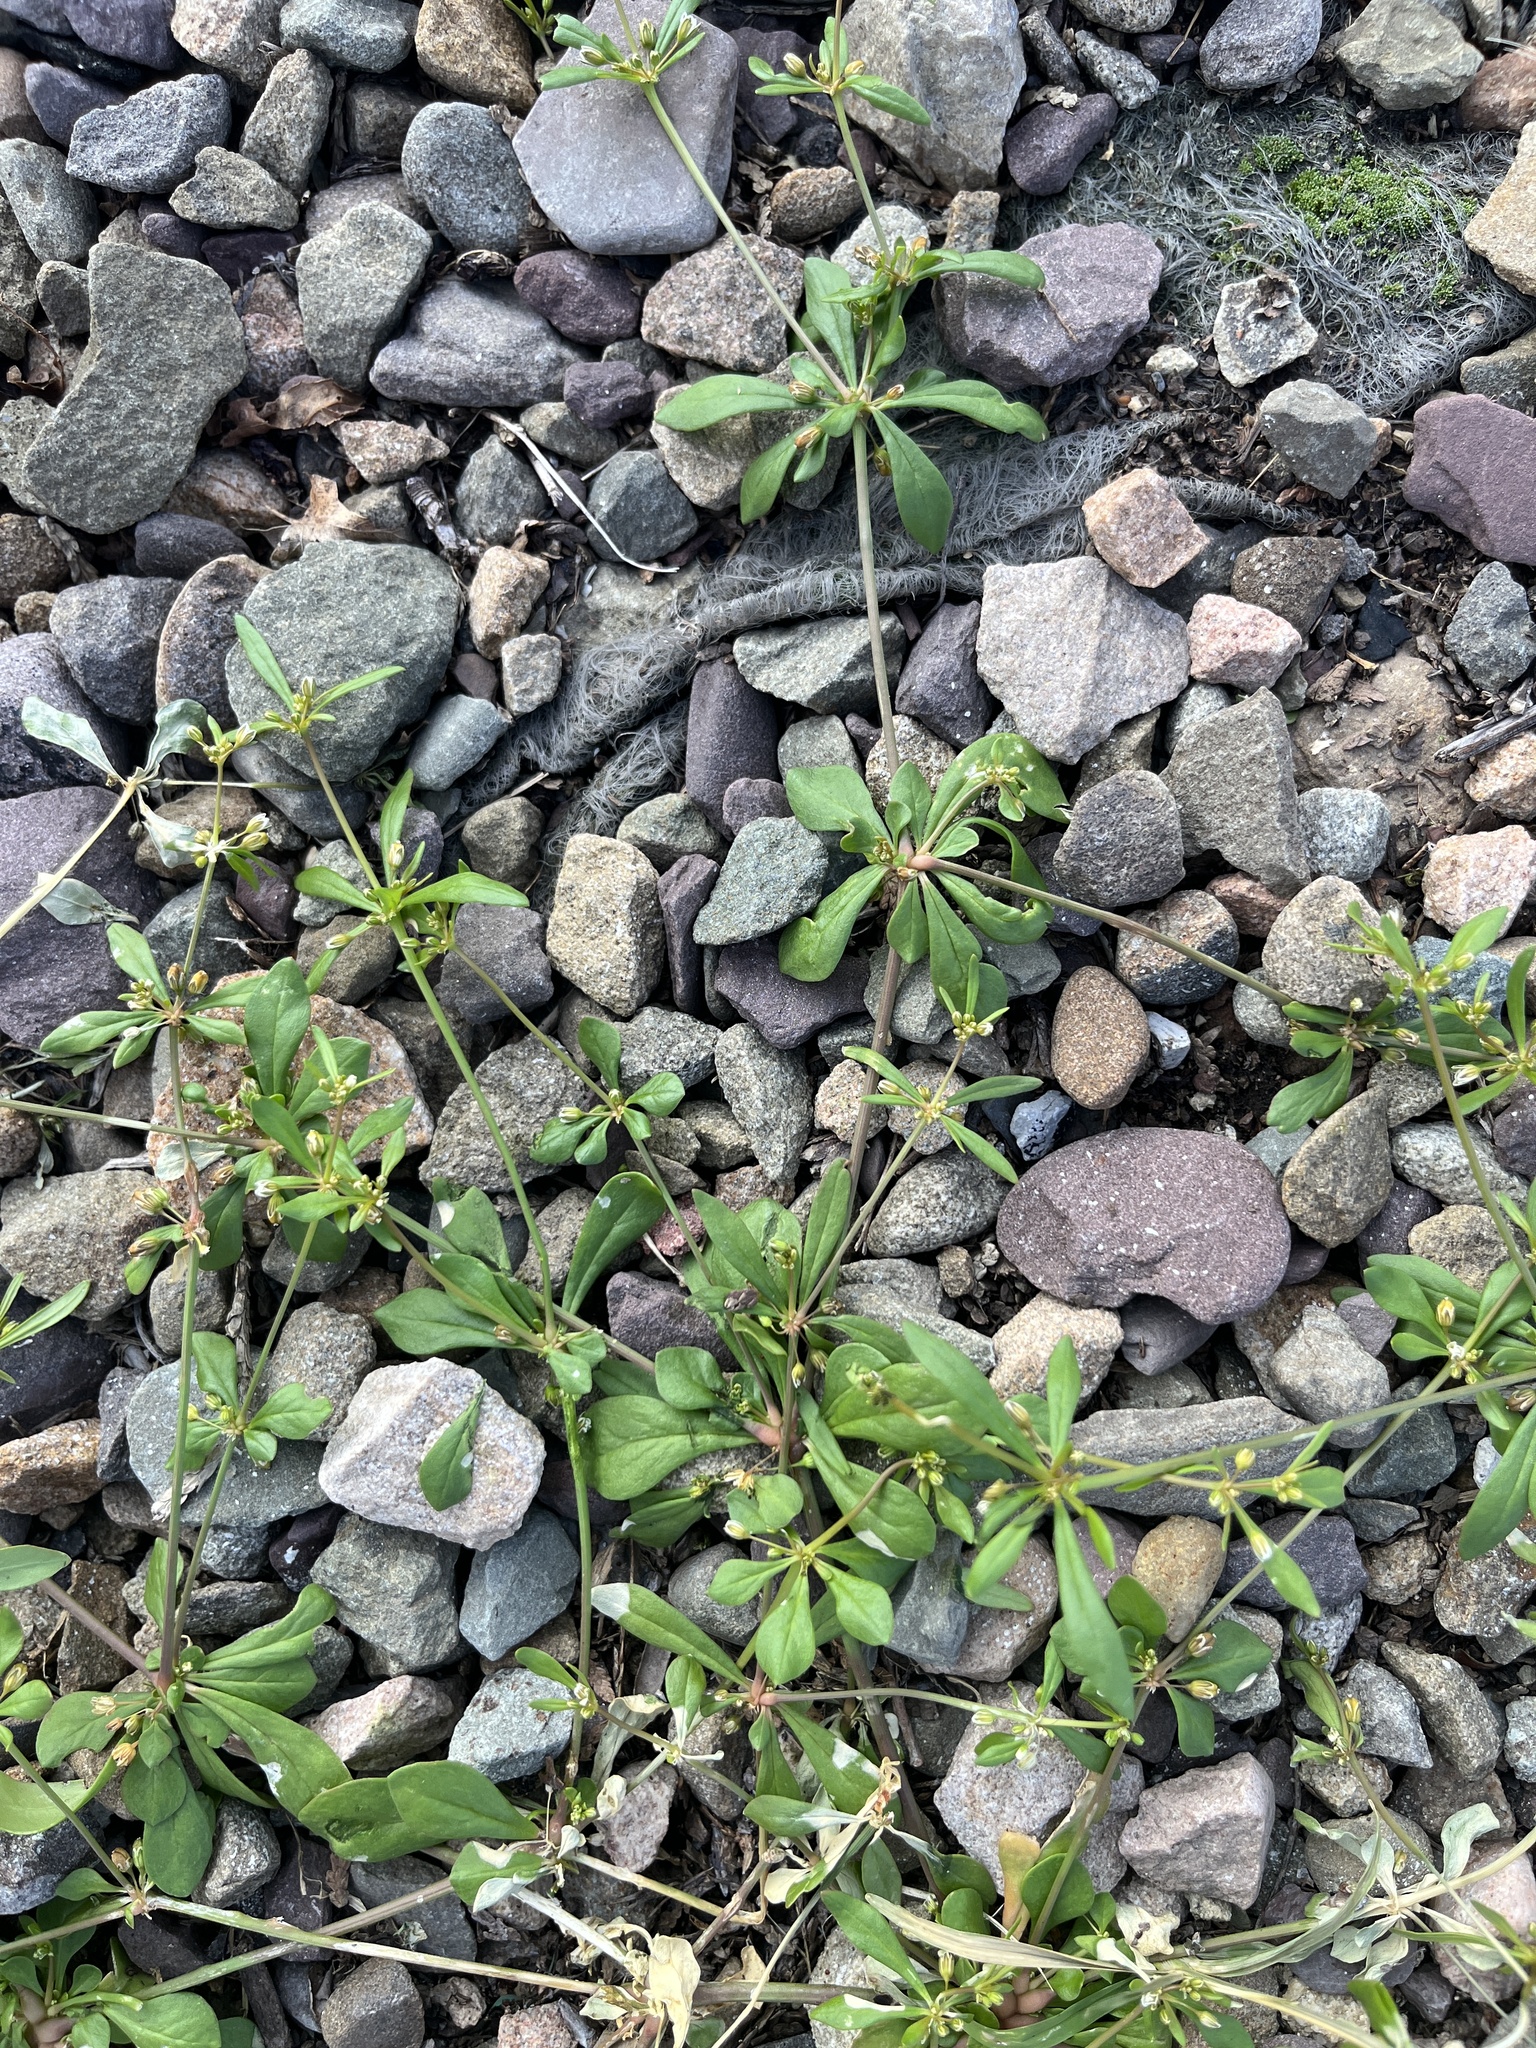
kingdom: Plantae
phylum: Tracheophyta
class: Magnoliopsida
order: Caryophyllales
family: Molluginaceae
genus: Mollugo
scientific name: Mollugo verticillata
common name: Green carpetweed
